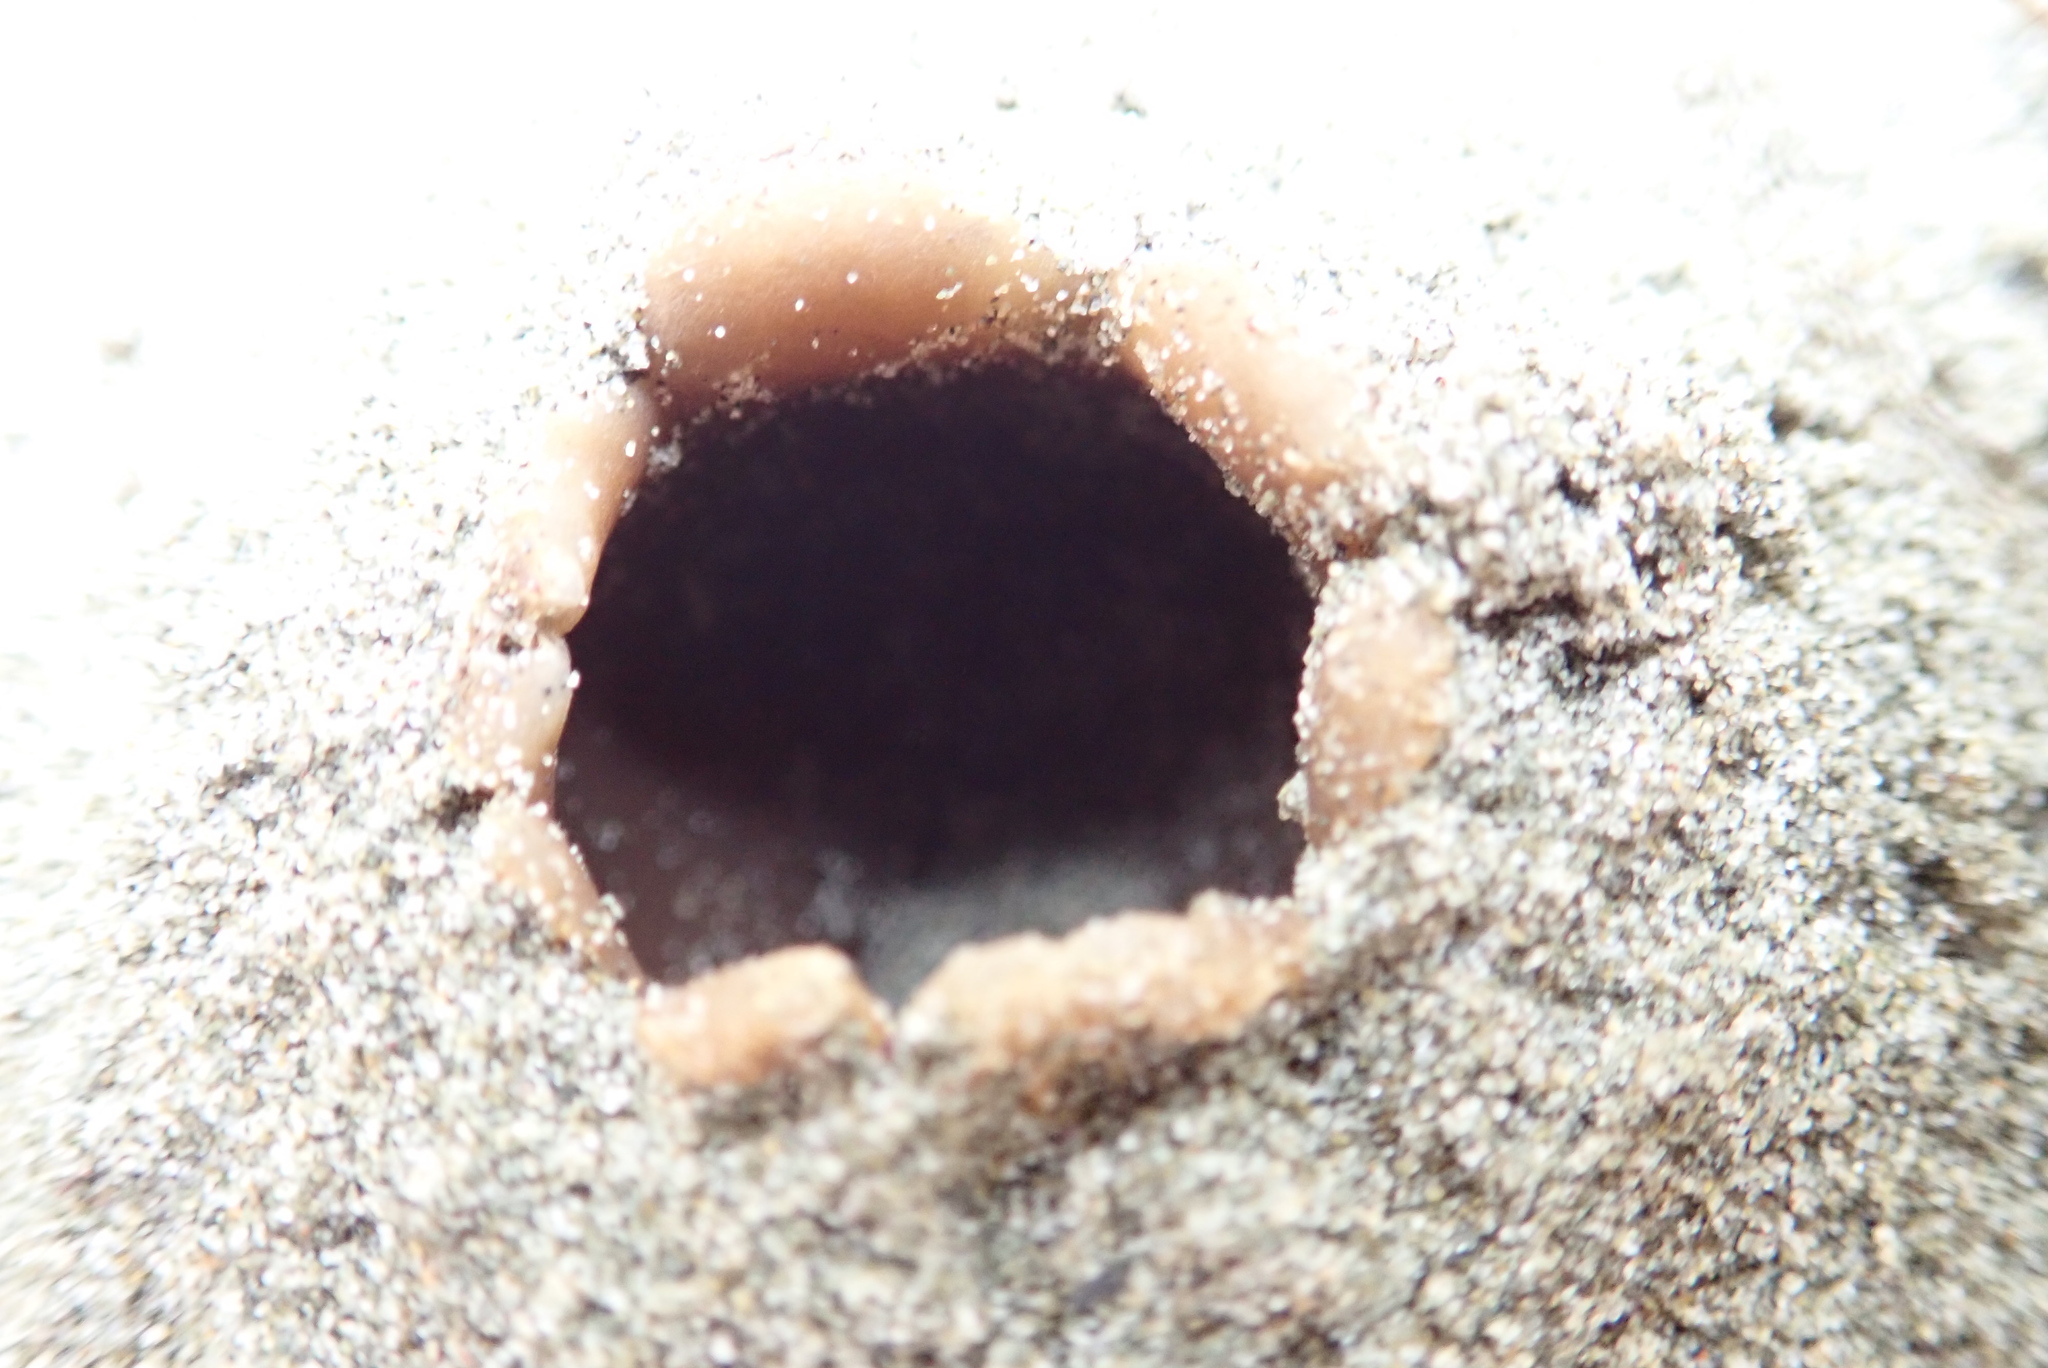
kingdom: Fungi
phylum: Ascomycota
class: Pezizomycetes
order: Pezizales
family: Pezizaceae
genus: Peziza
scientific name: Peziza oceanica
